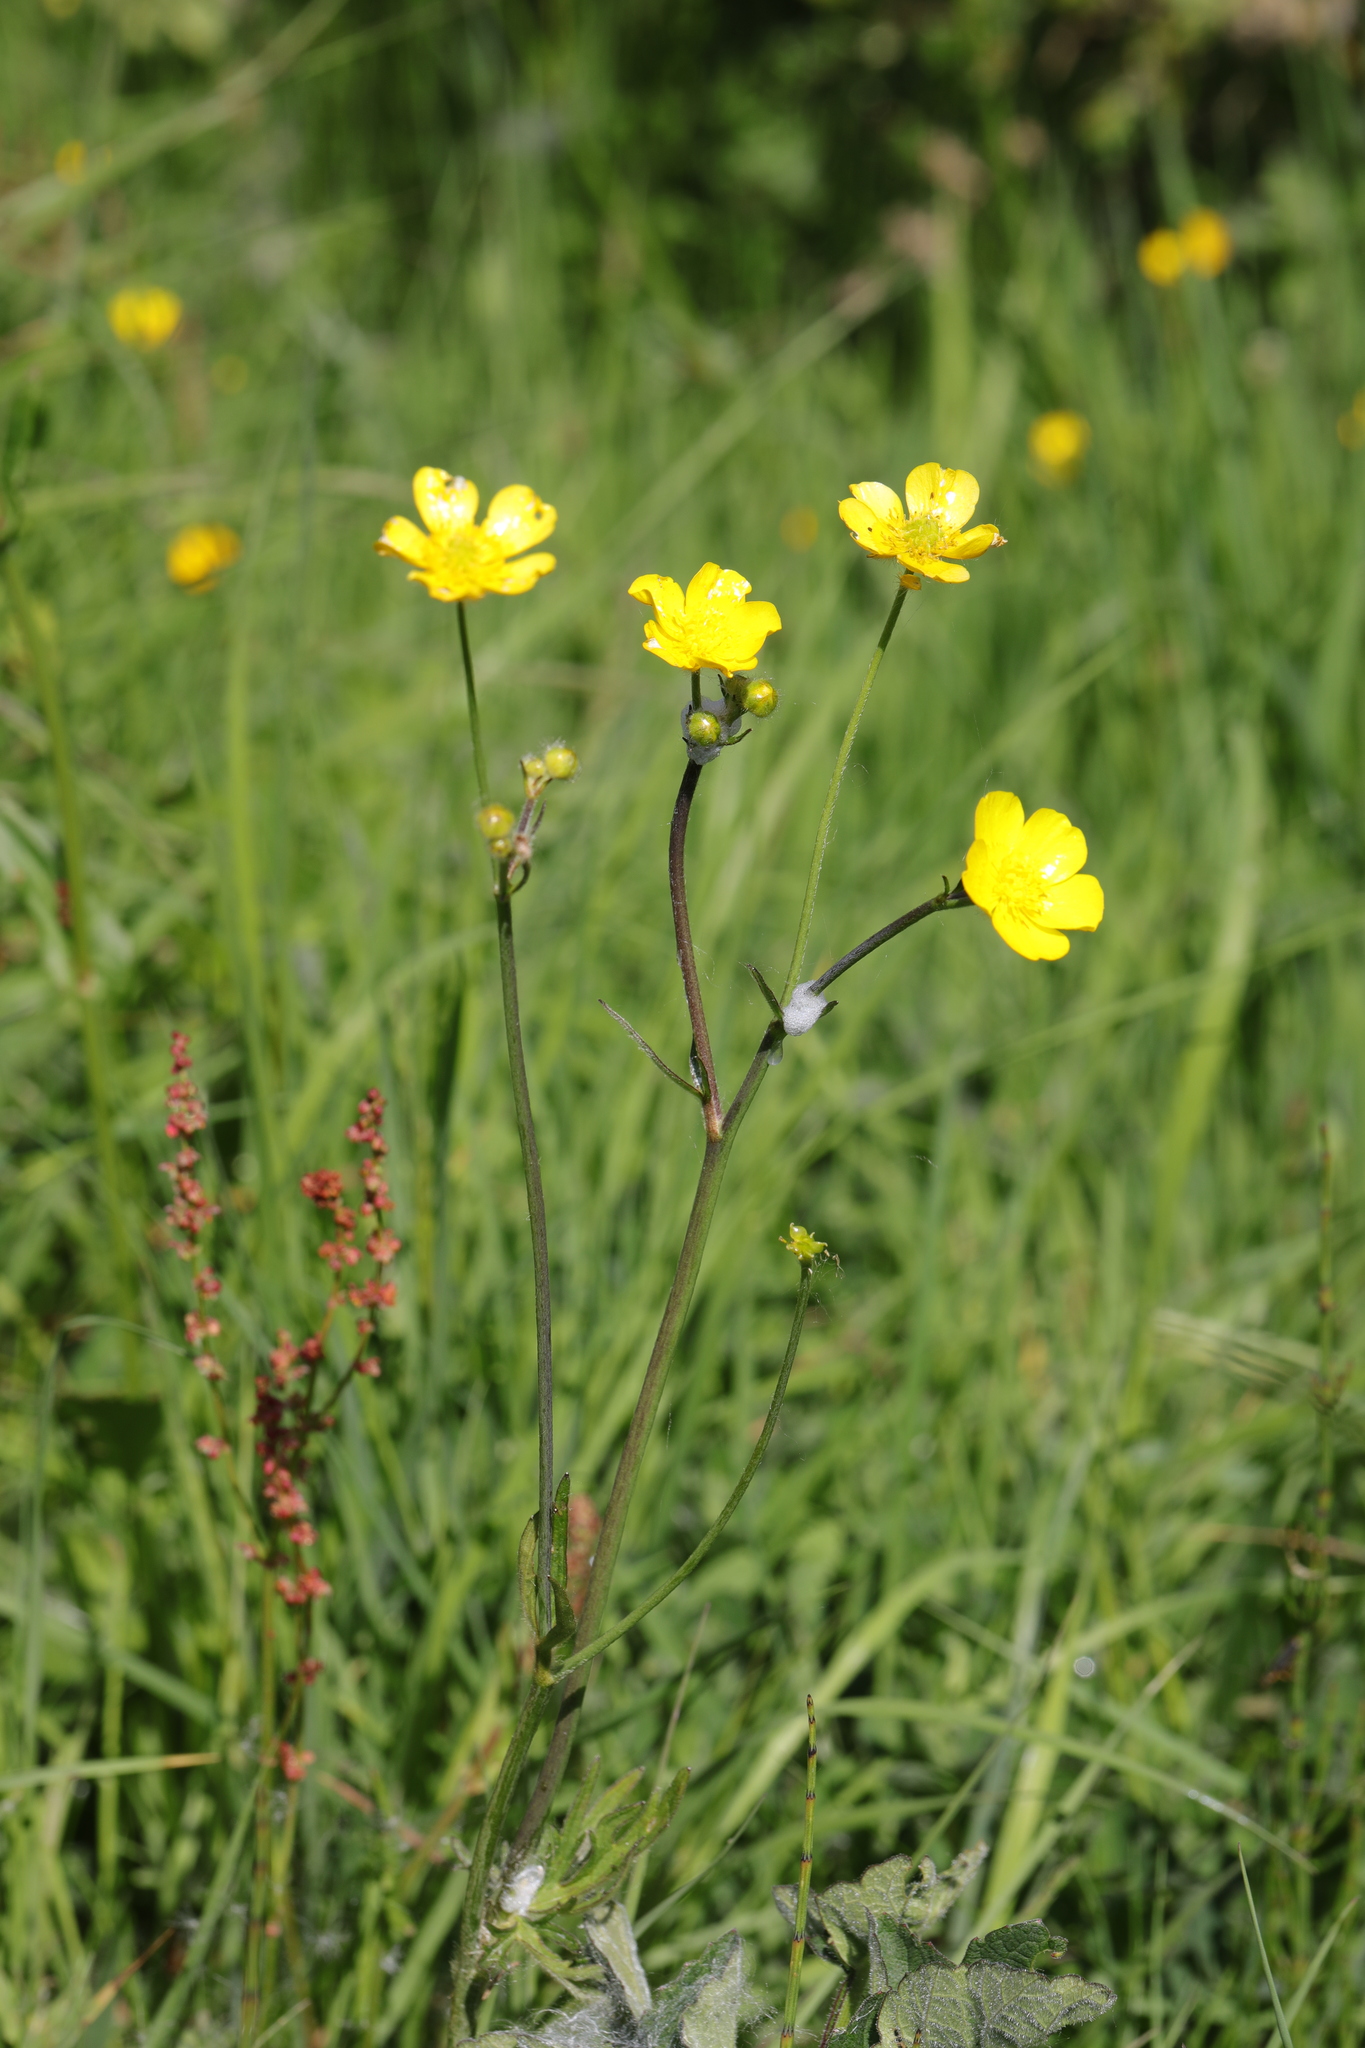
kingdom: Plantae
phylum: Tracheophyta
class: Magnoliopsida
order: Ranunculales
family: Ranunculaceae
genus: Ranunculus
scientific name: Ranunculus acris
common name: Meadow buttercup
